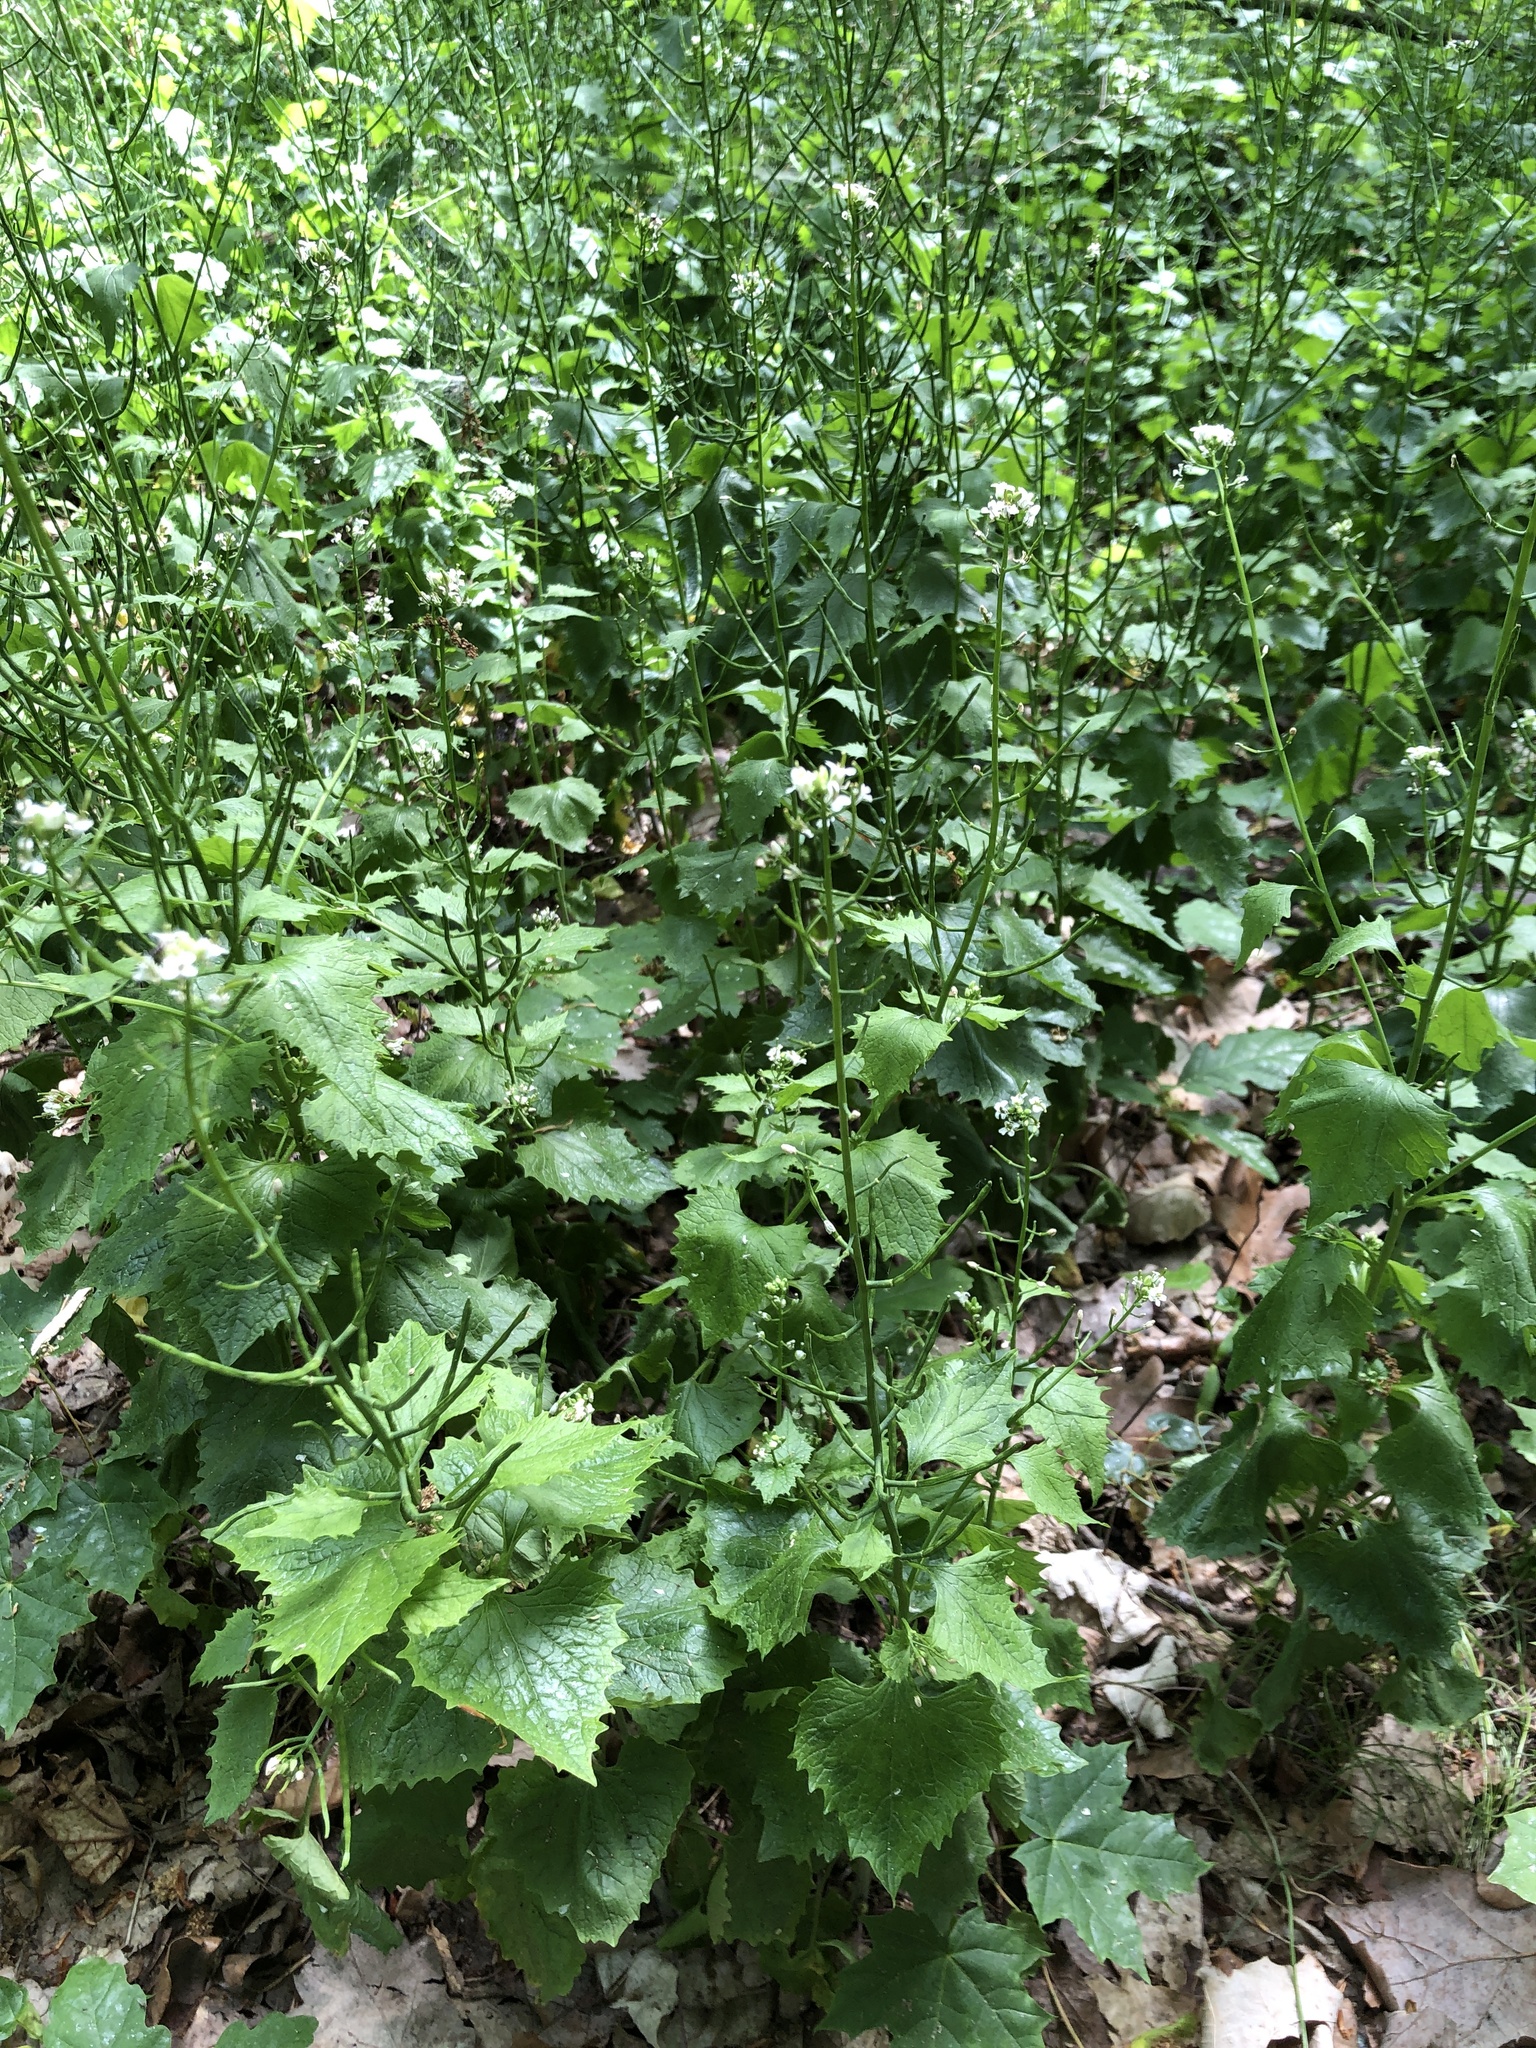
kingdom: Plantae
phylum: Tracheophyta
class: Magnoliopsida
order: Brassicales
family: Brassicaceae
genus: Alliaria
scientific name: Alliaria petiolata
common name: Garlic mustard
